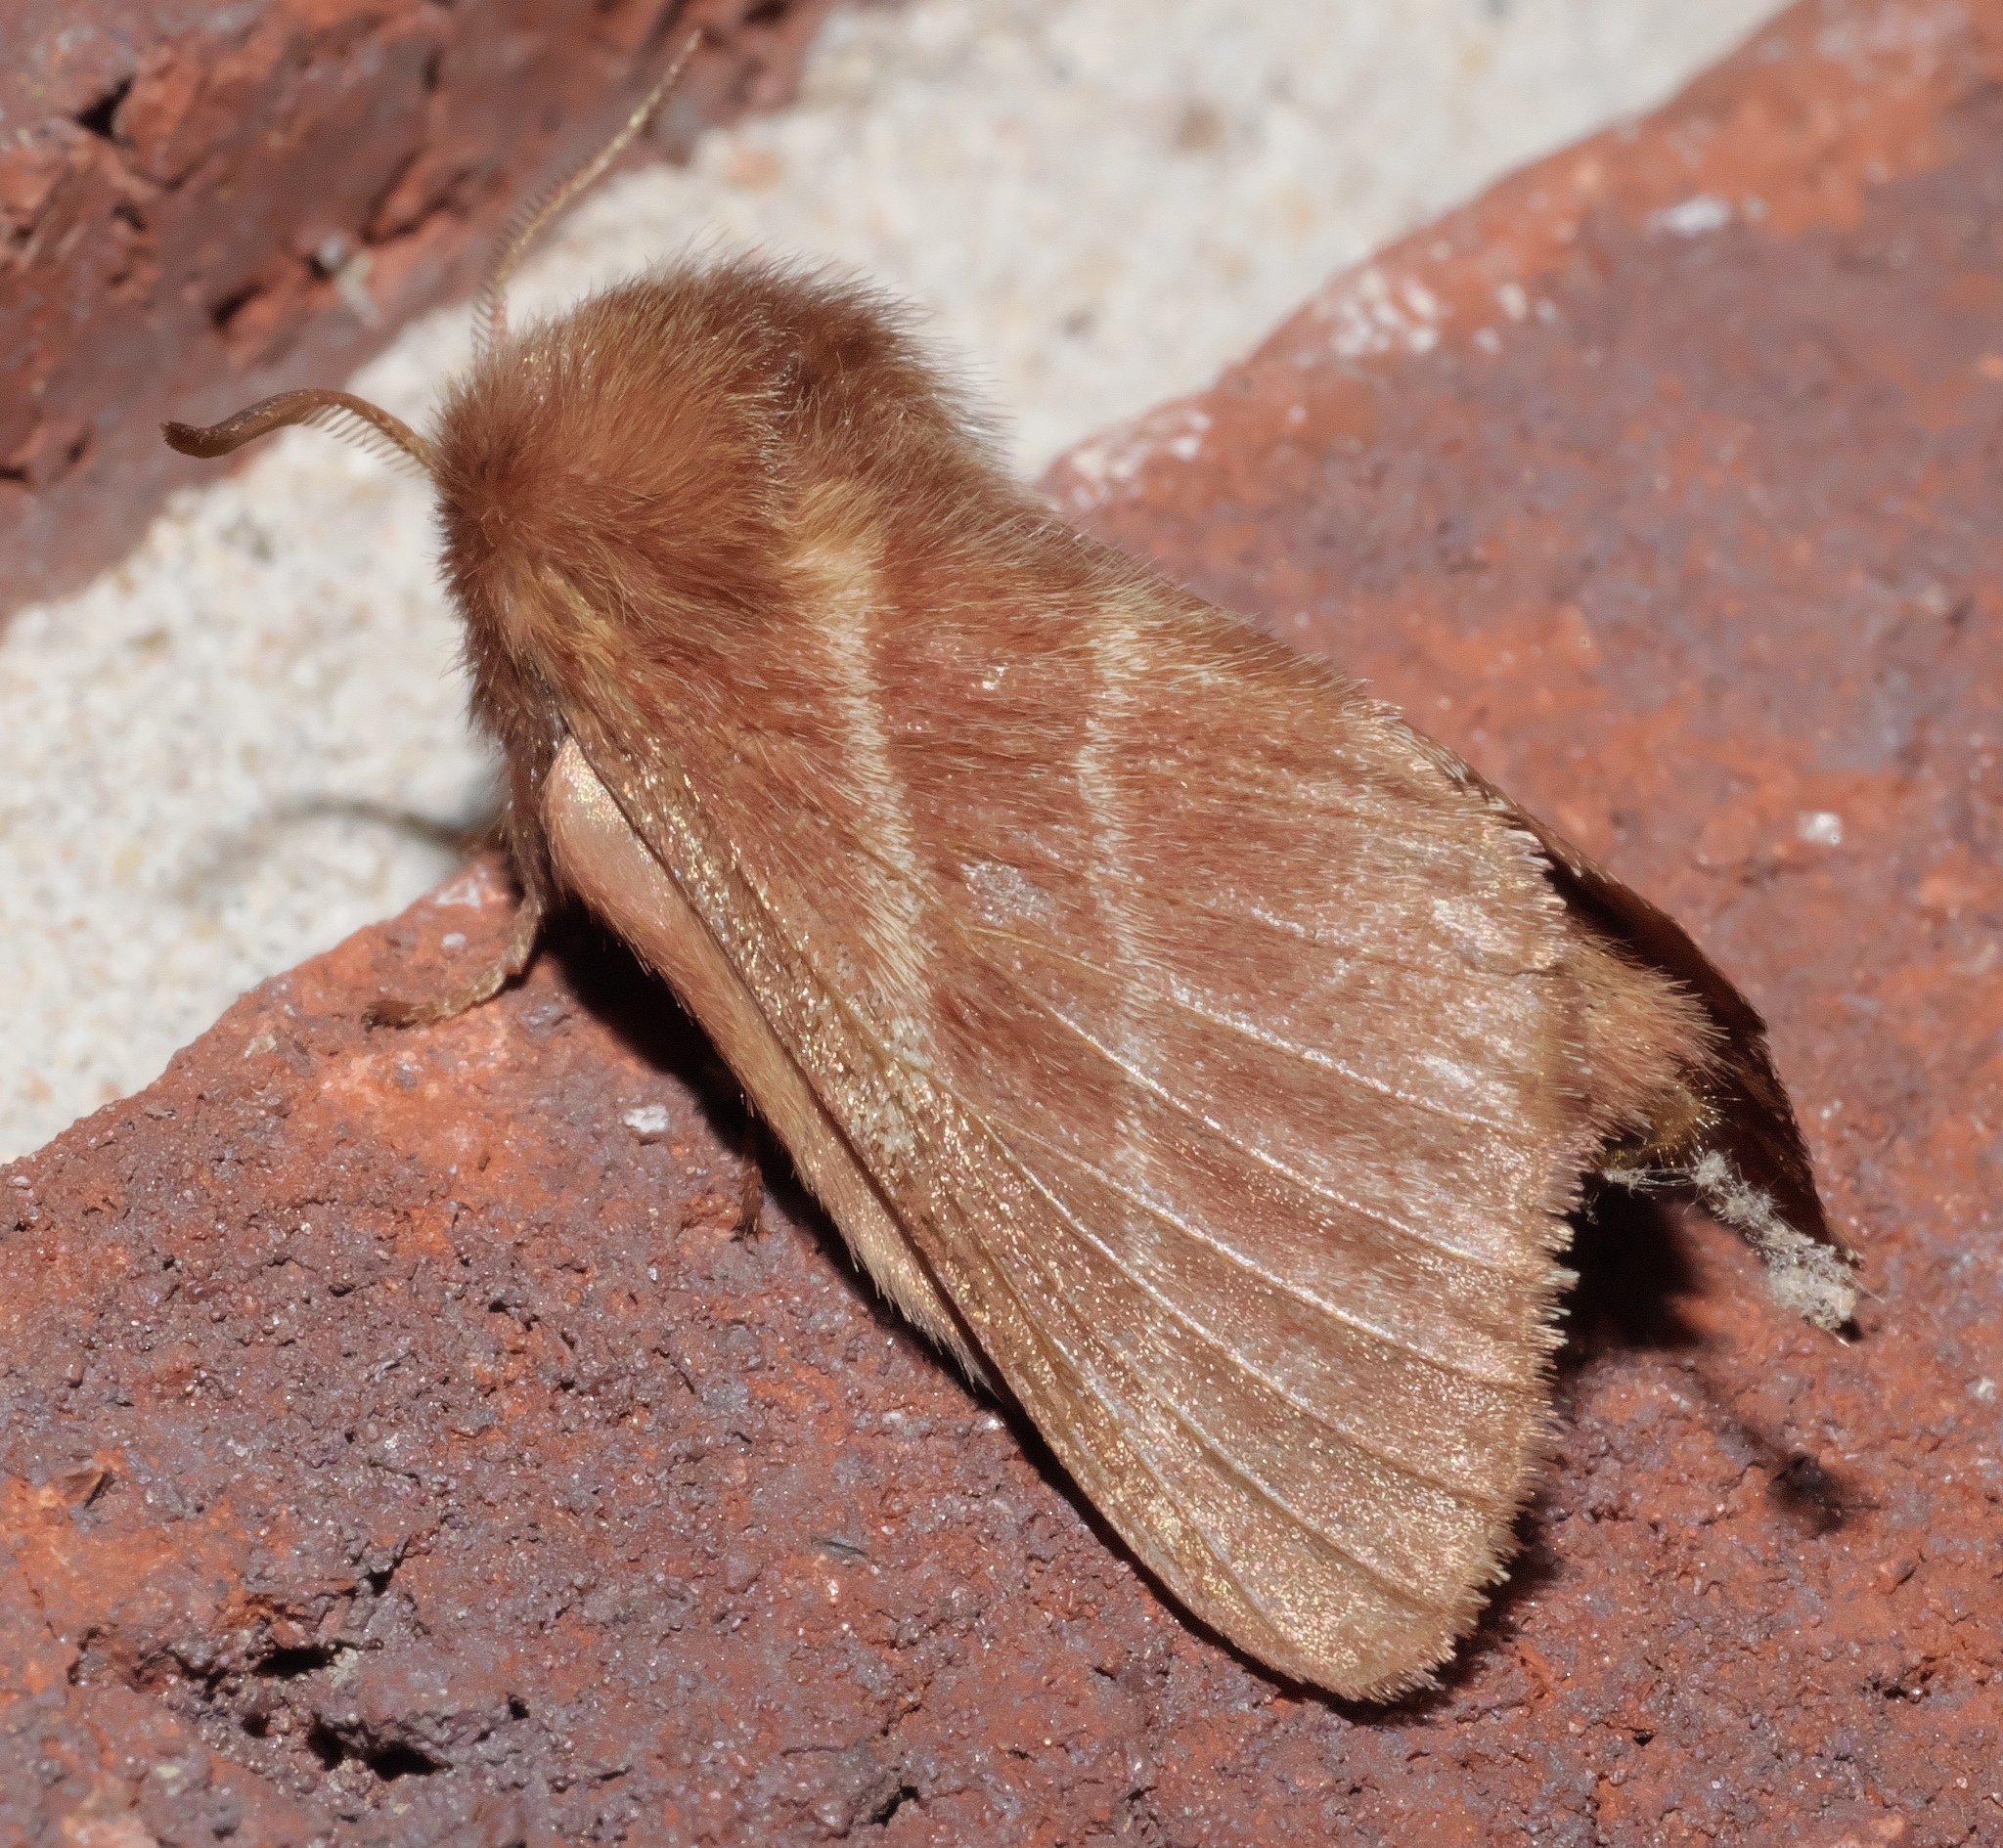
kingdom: Animalia
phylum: Arthropoda
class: Insecta
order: Lepidoptera
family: Lasiocampidae
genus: Malacosoma
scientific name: Malacosoma americana
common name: Eastern tent caterpillar moth
